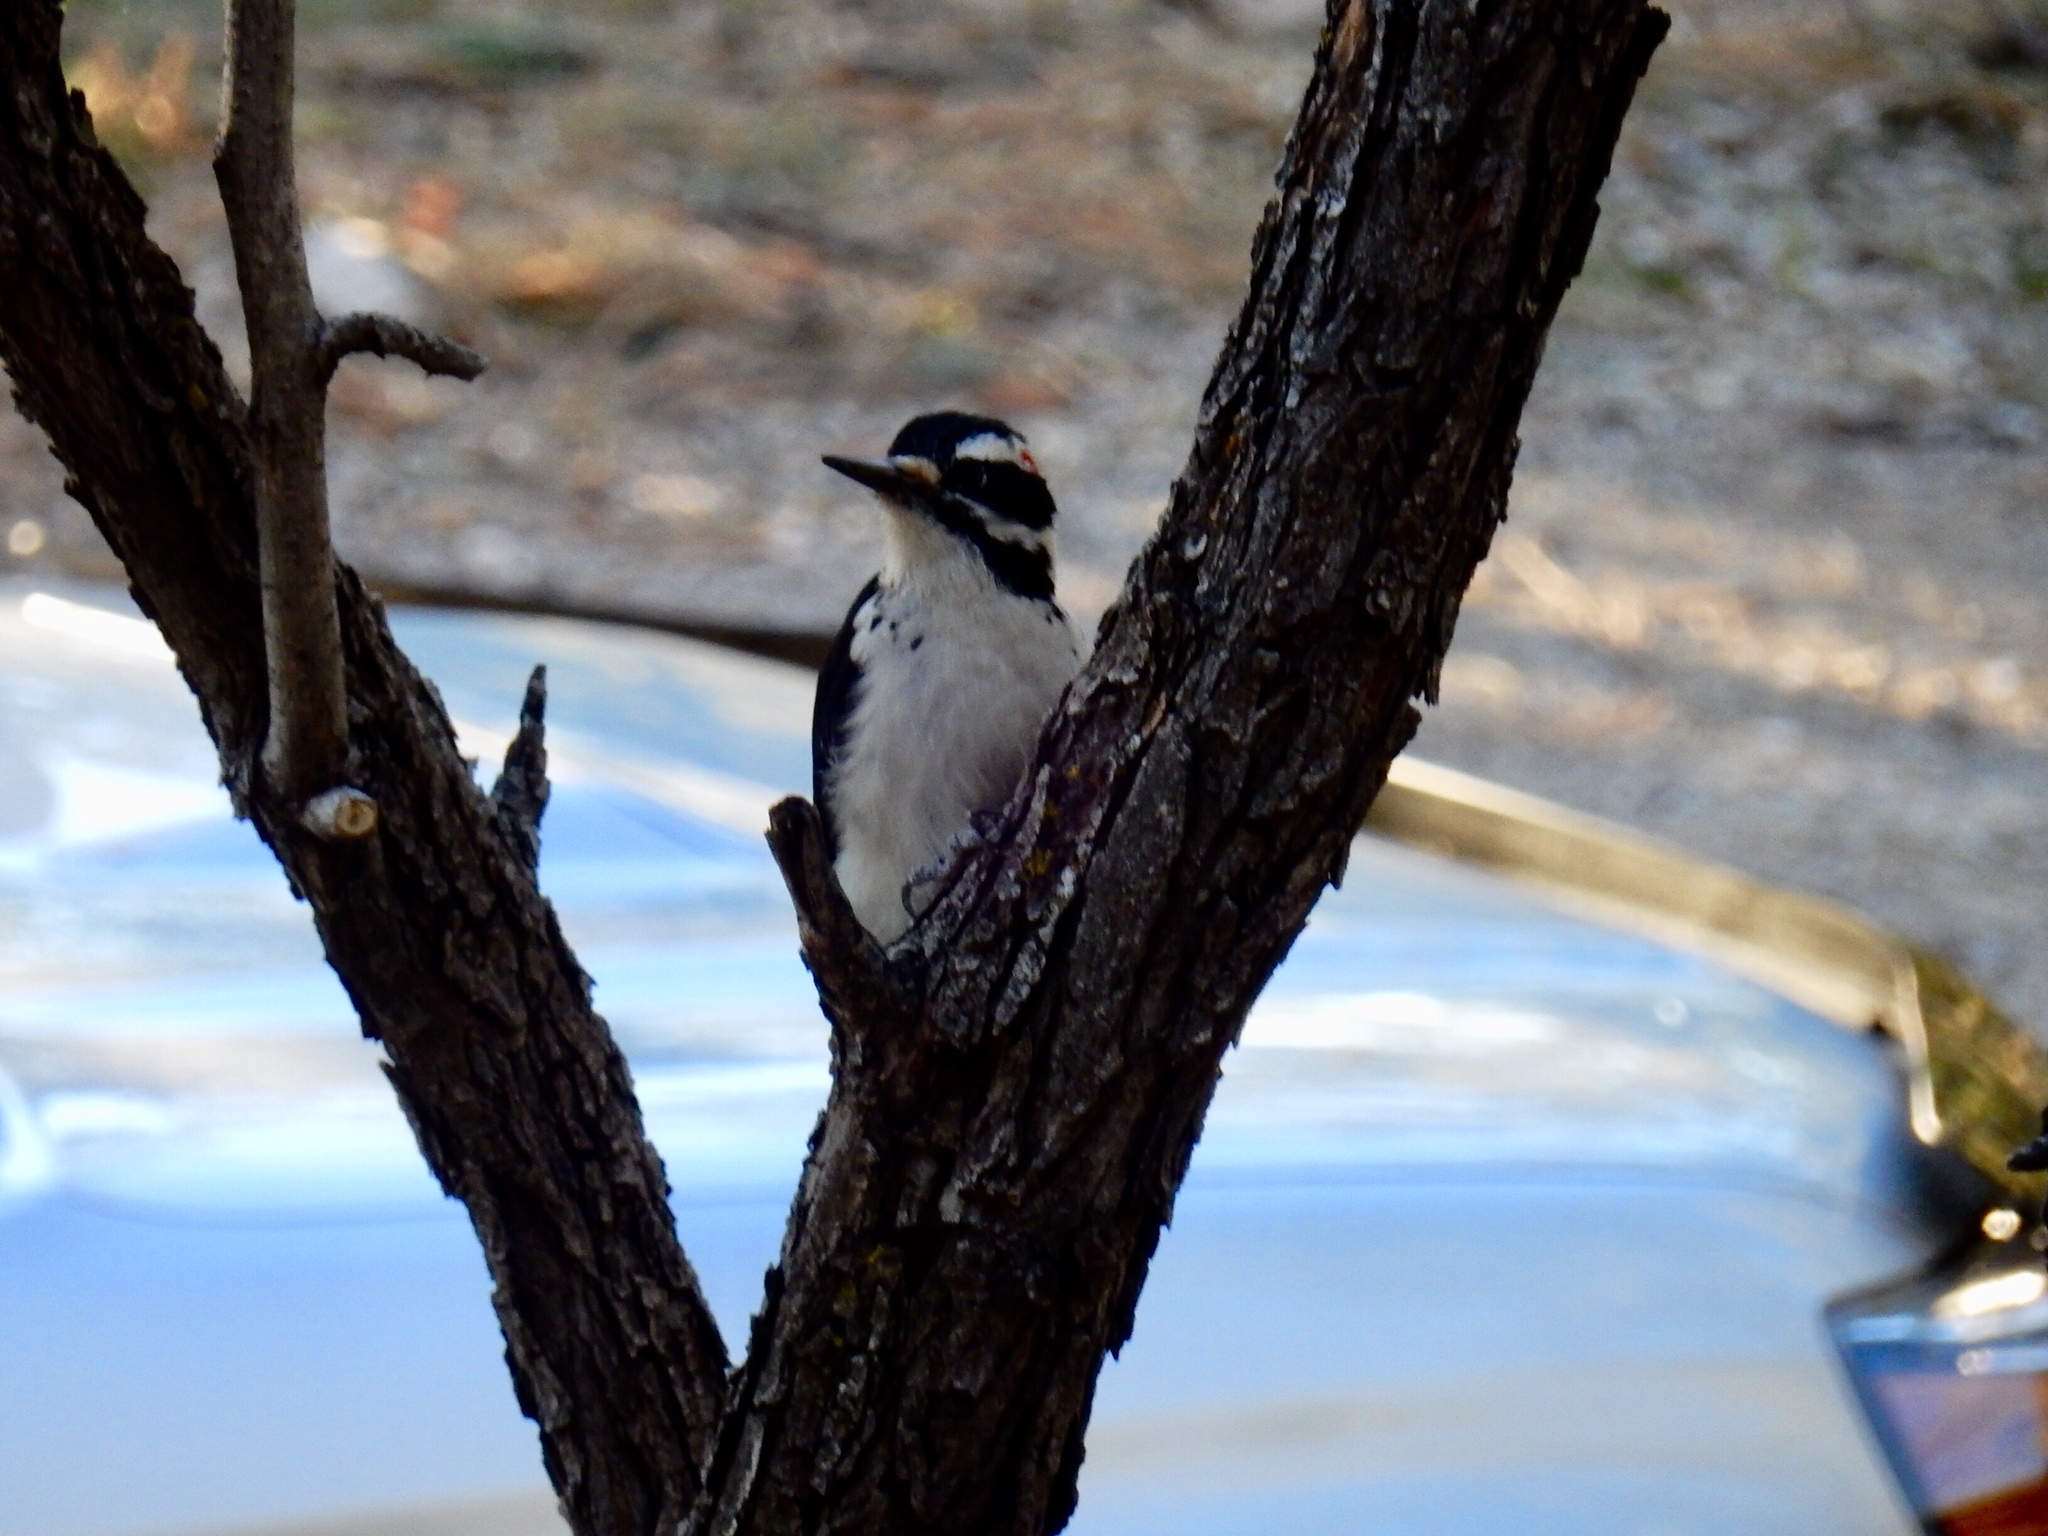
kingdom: Animalia
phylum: Chordata
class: Aves
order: Piciformes
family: Picidae
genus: Leuconotopicus
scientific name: Leuconotopicus villosus
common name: Hairy woodpecker
